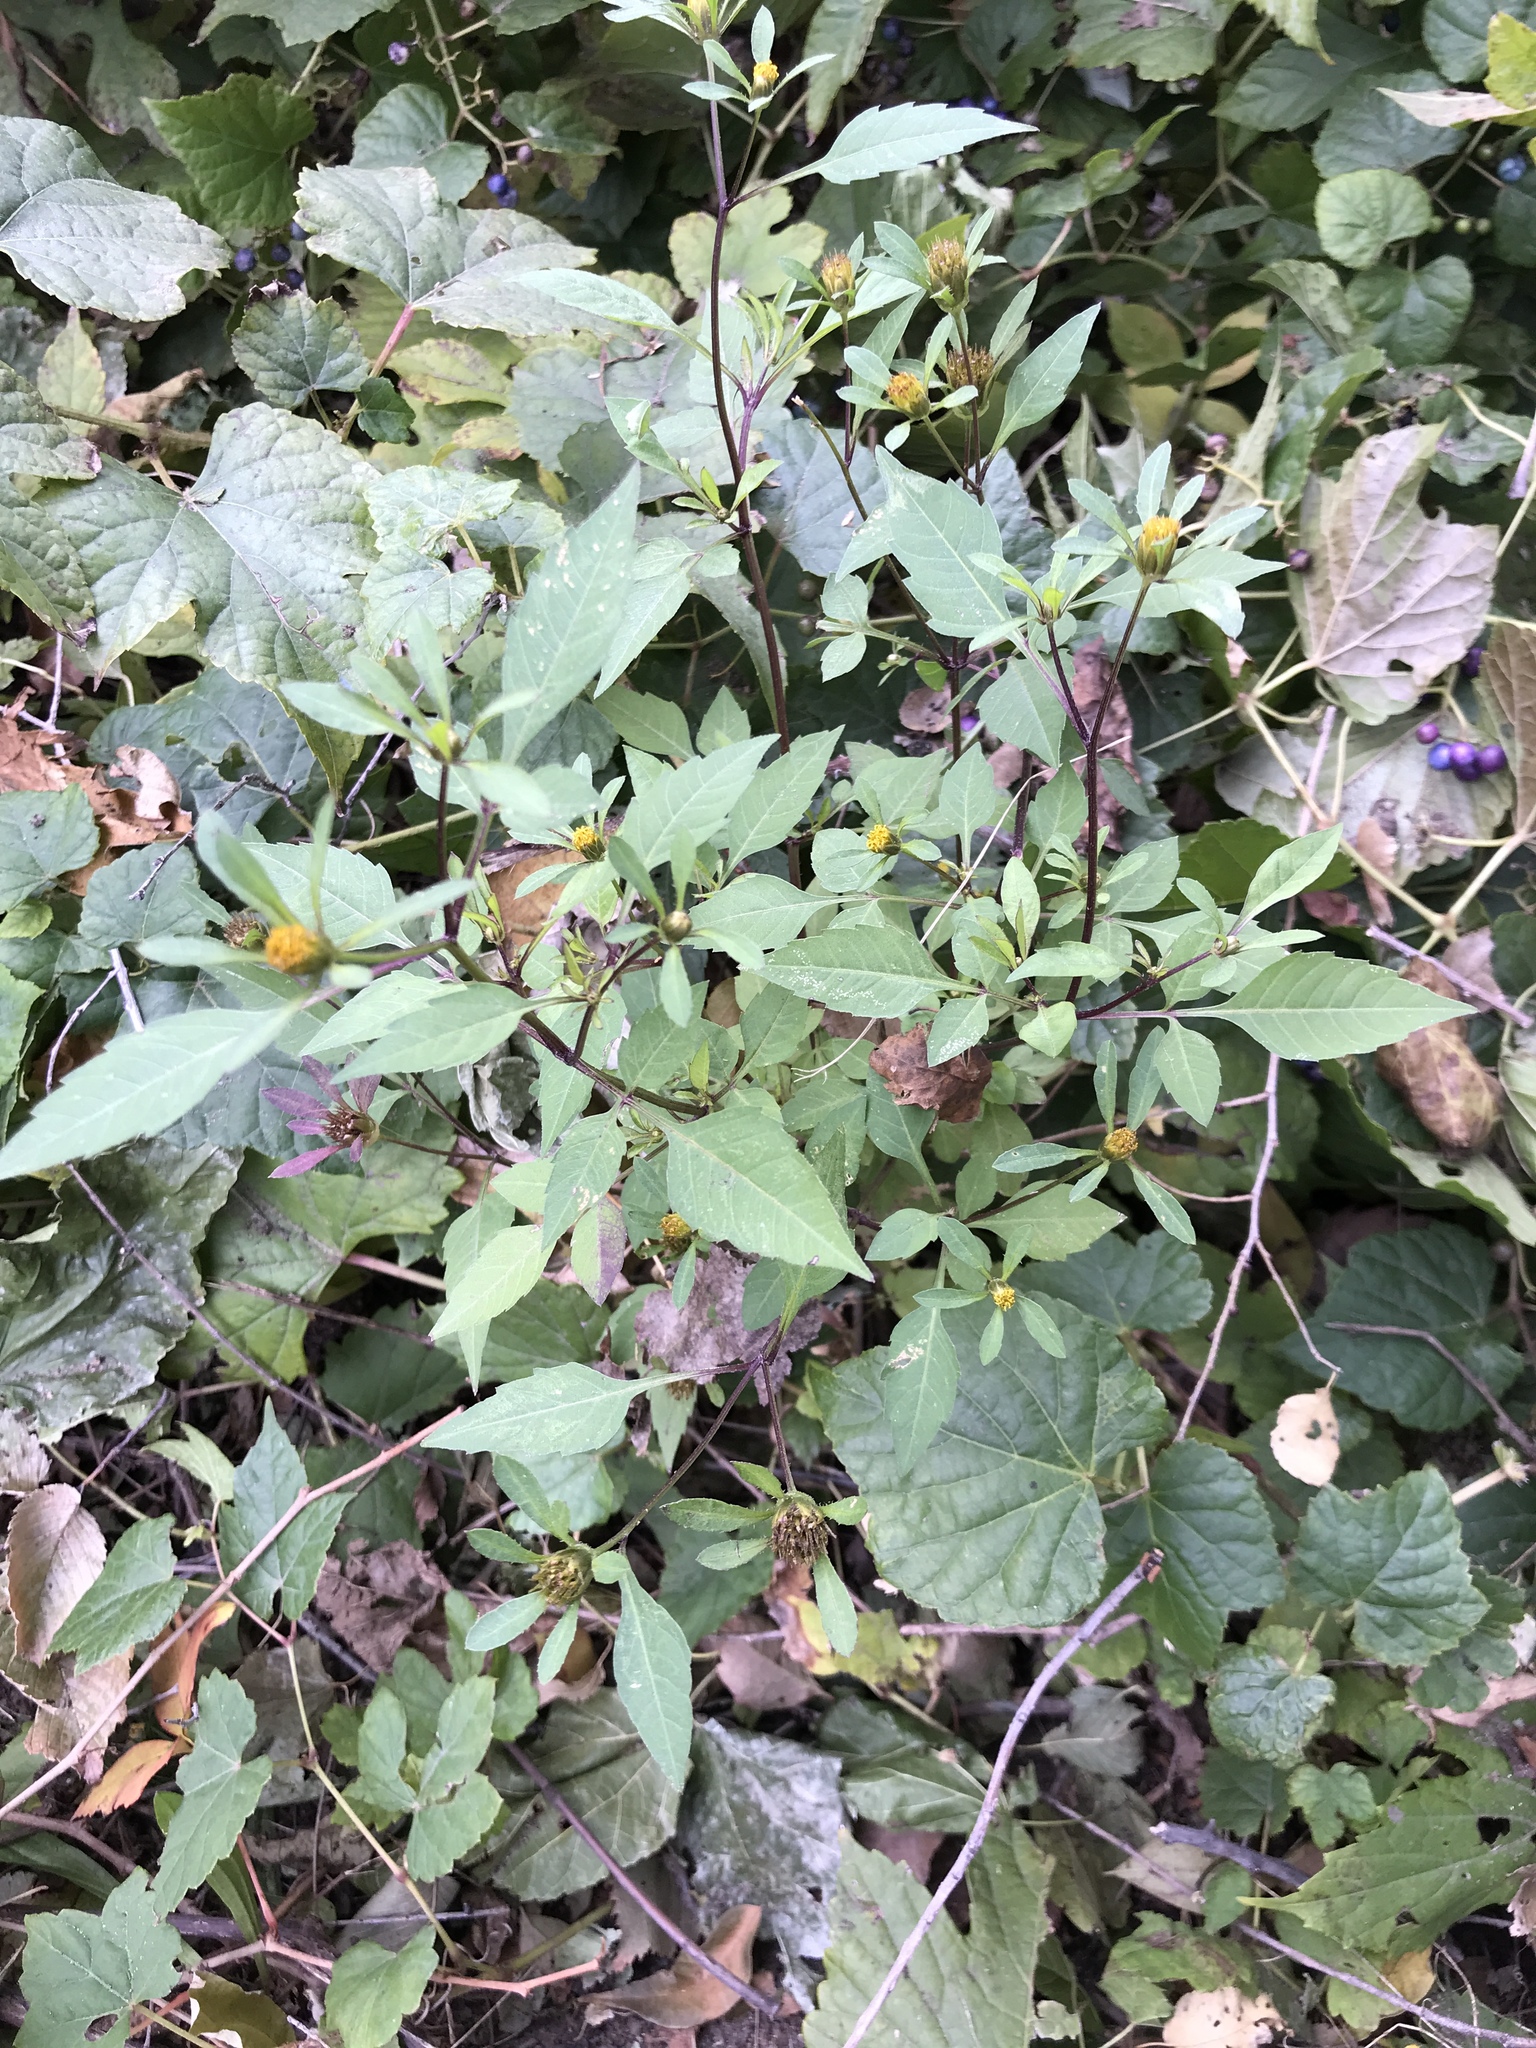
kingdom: Plantae
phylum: Tracheophyta
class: Magnoliopsida
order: Asterales
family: Asteraceae
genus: Bidens
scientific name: Bidens frondosa
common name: Beggarticks
